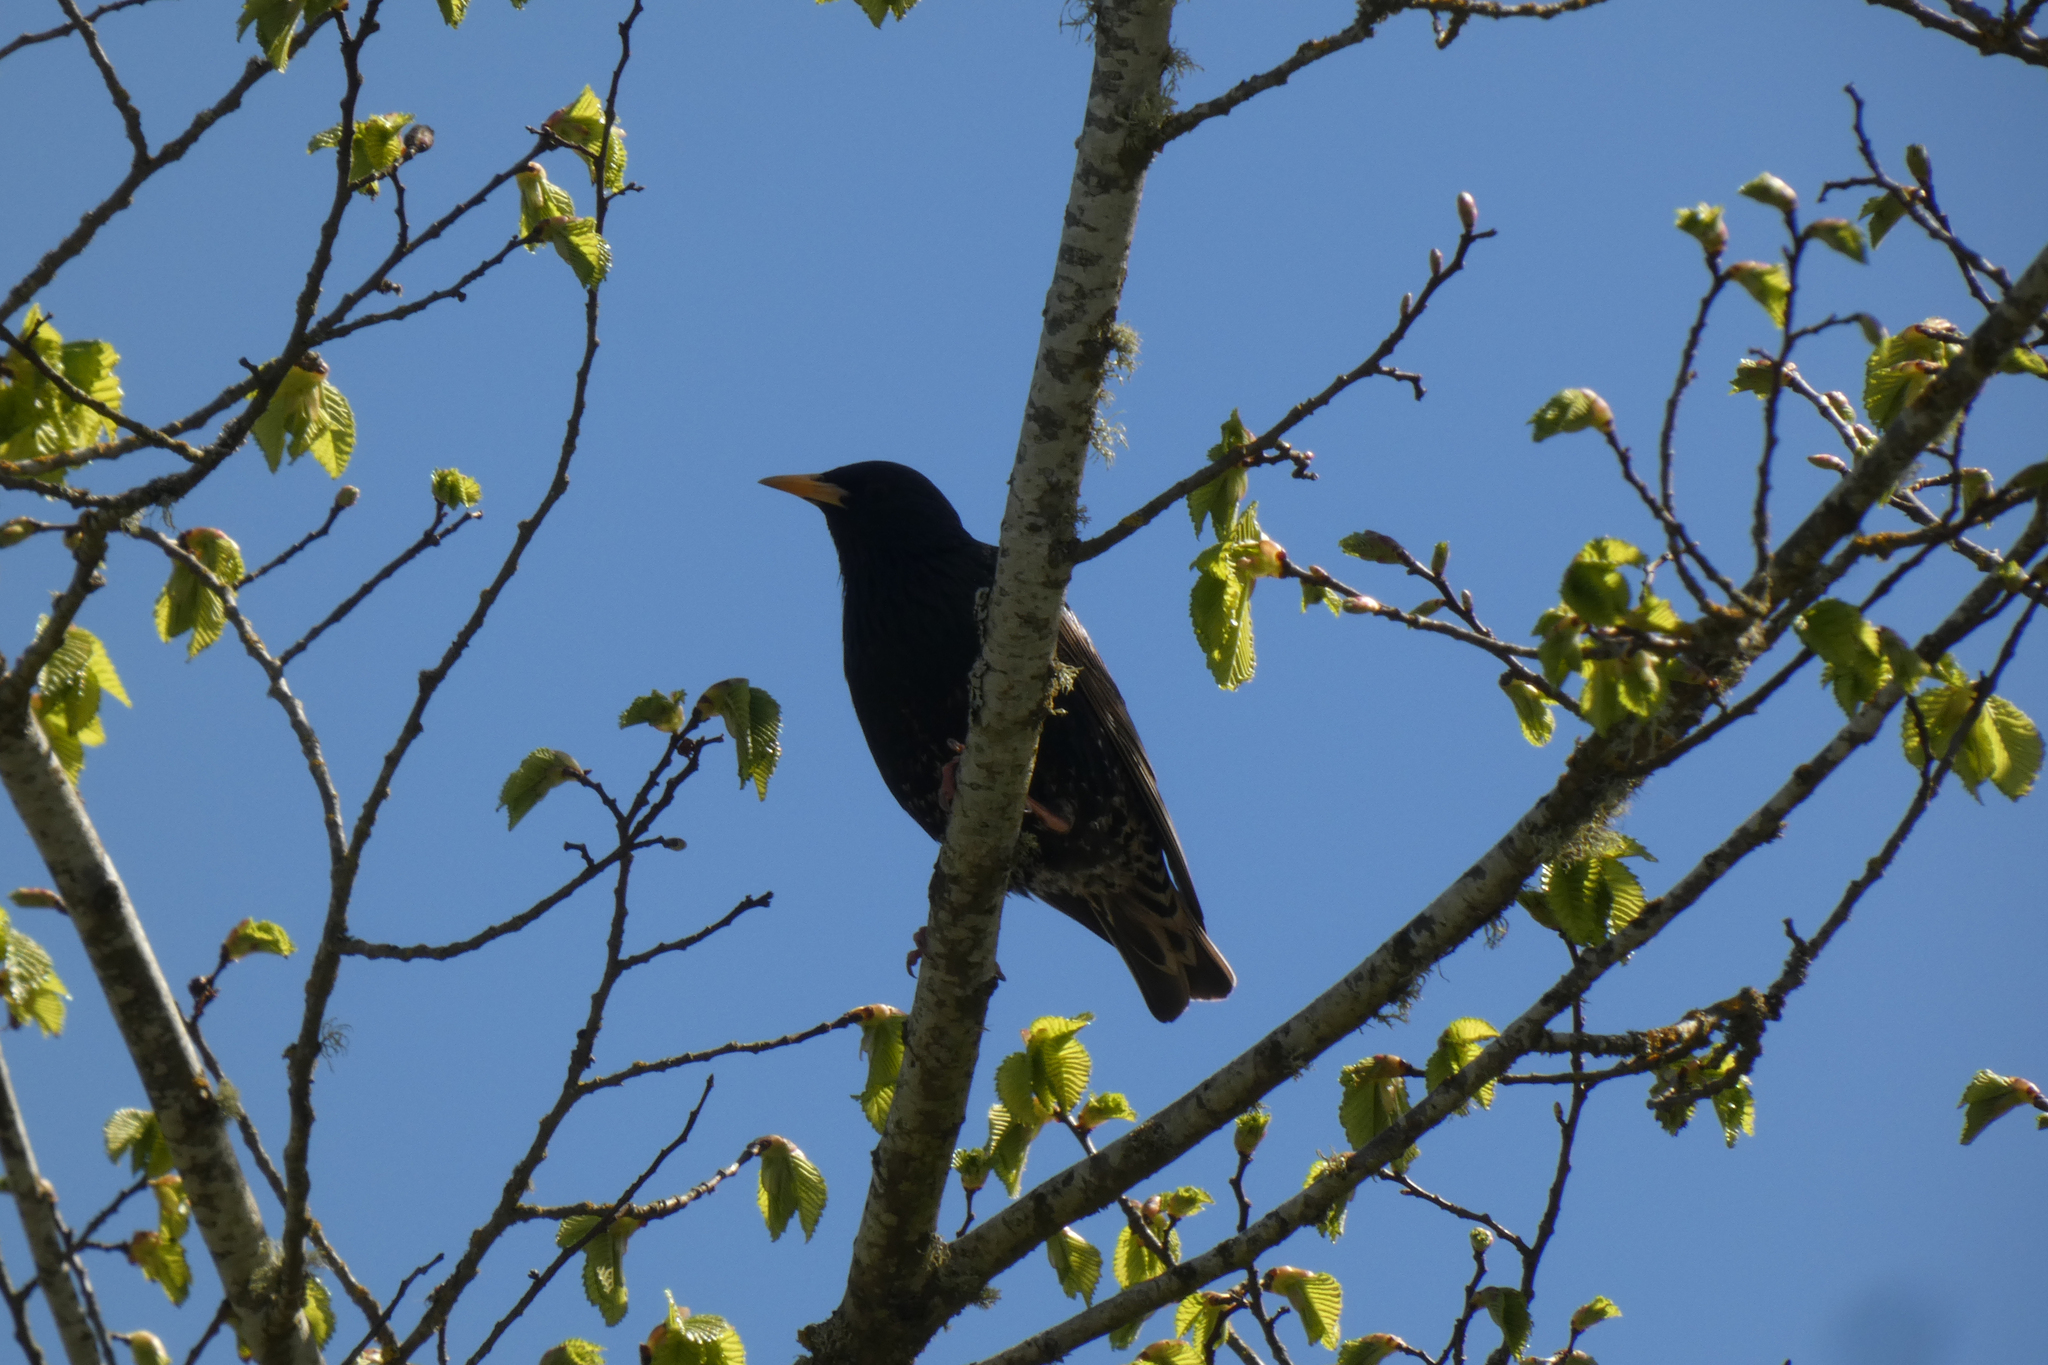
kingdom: Animalia
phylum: Chordata
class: Aves
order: Passeriformes
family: Sturnidae
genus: Sturnus
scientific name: Sturnus vulgaris
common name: Common starling
